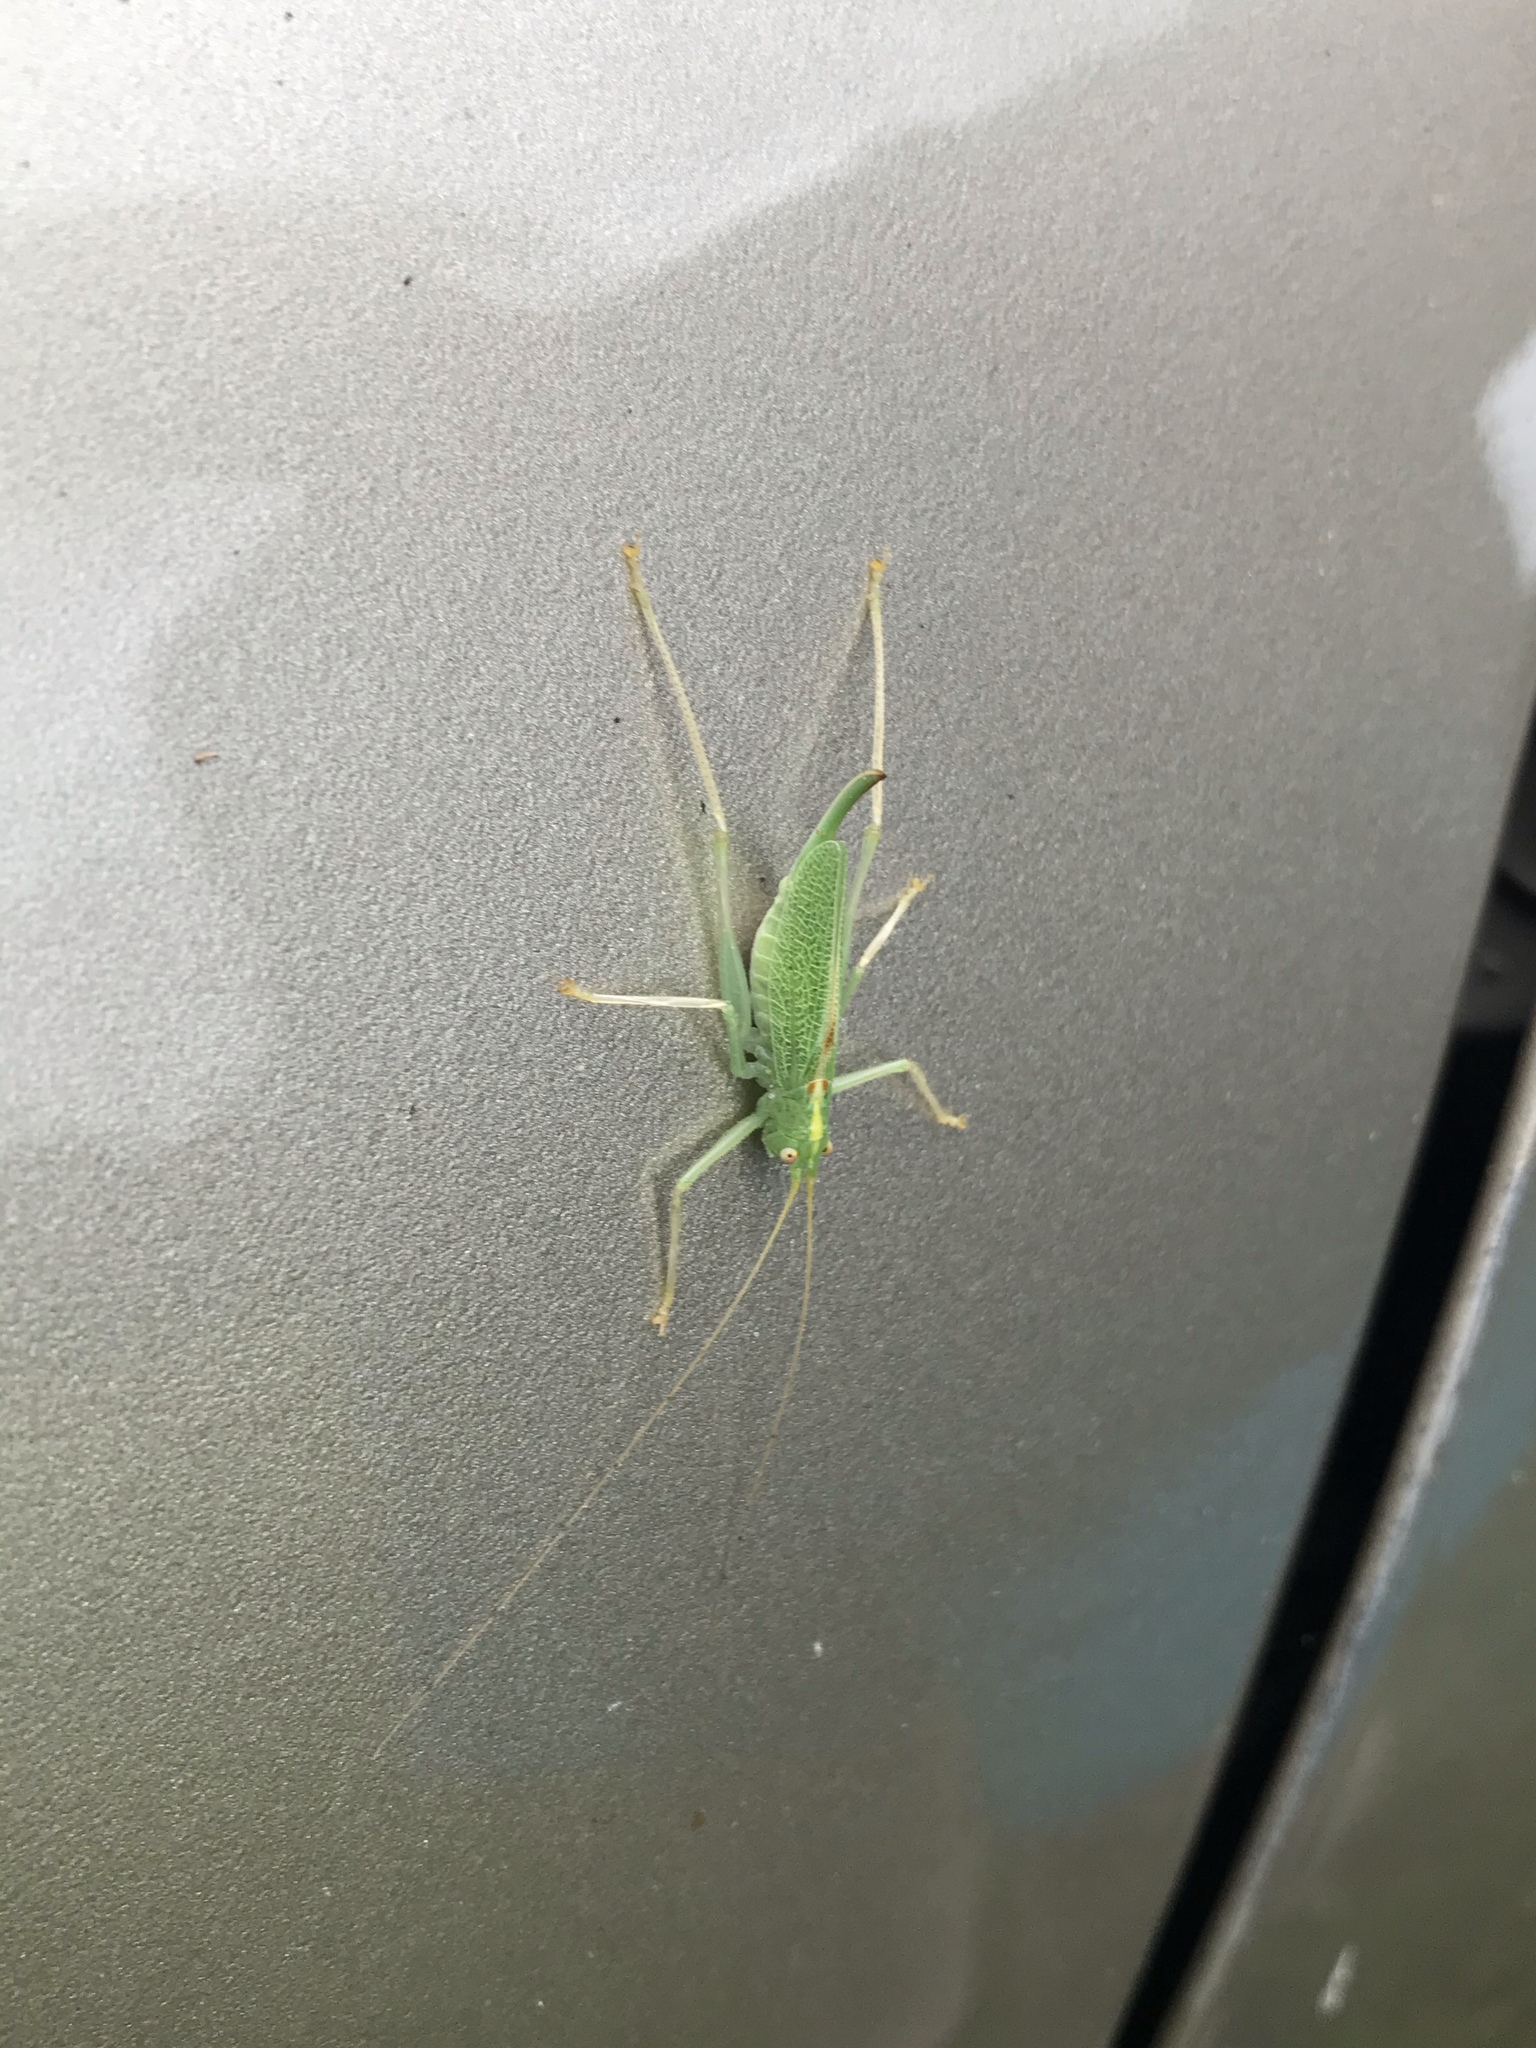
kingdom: Animalia
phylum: Arthropoda
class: Insecta
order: Orthoptera
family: Tettigoniidae
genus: Meconema
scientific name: Meconema thalassinum
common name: Oak bush-cricket
